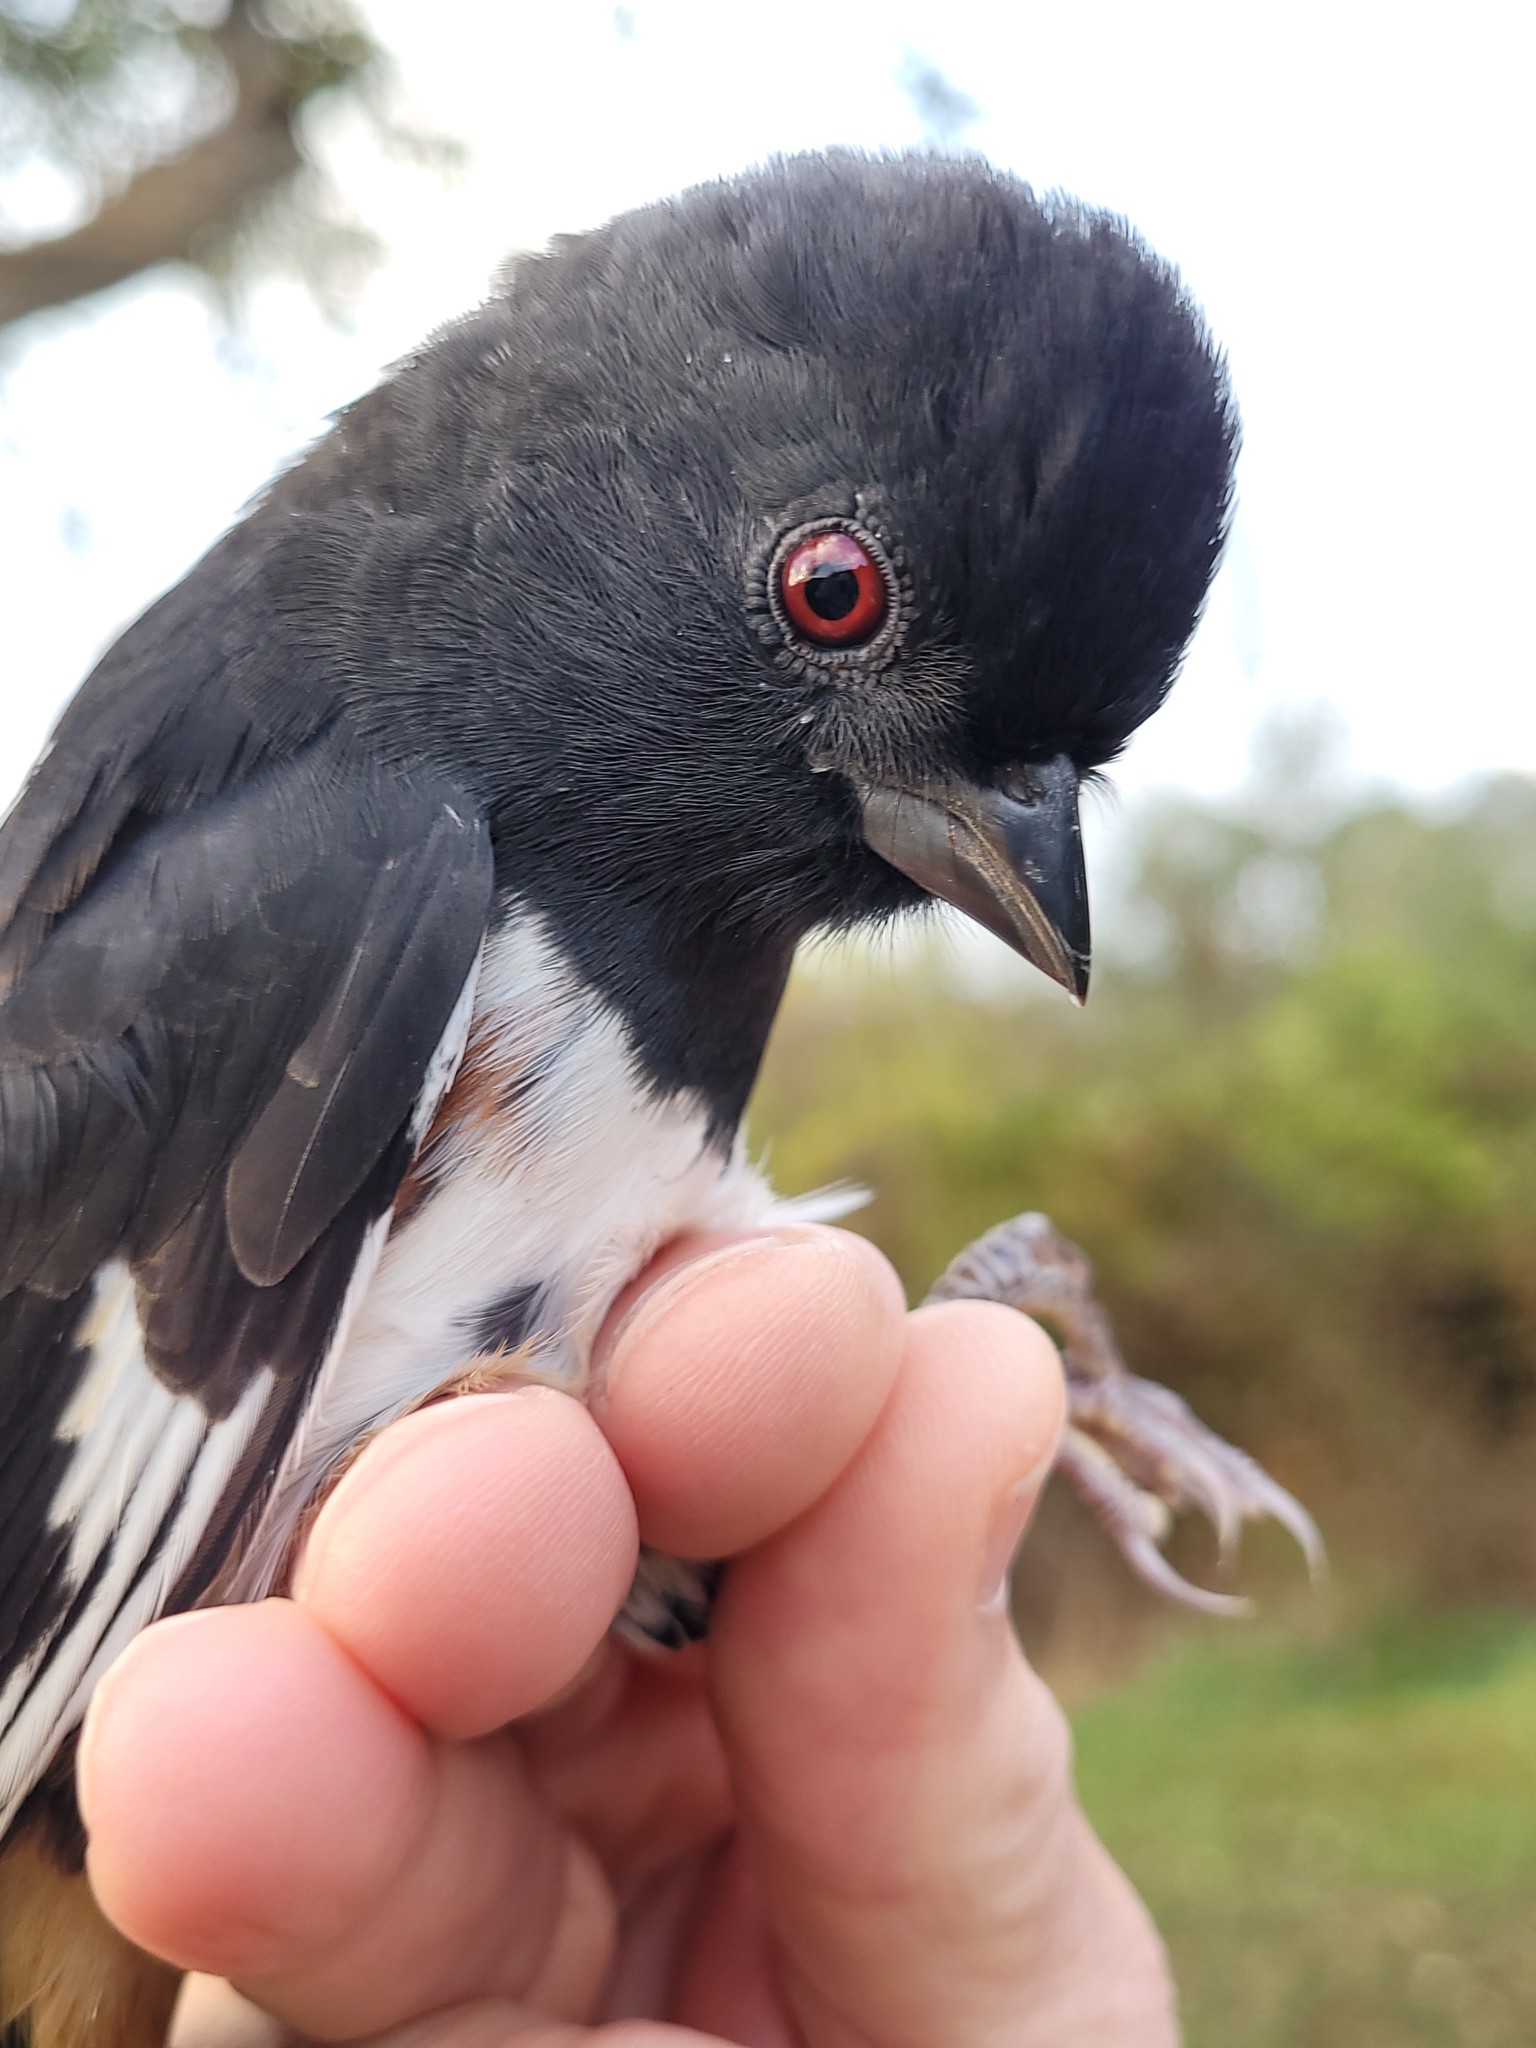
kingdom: Animalia
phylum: Chordata
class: Aves
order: Passeriformes
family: Passerellidae
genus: Pipilo
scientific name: Pipilo erythrophthalmus
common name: Eastern towhee
